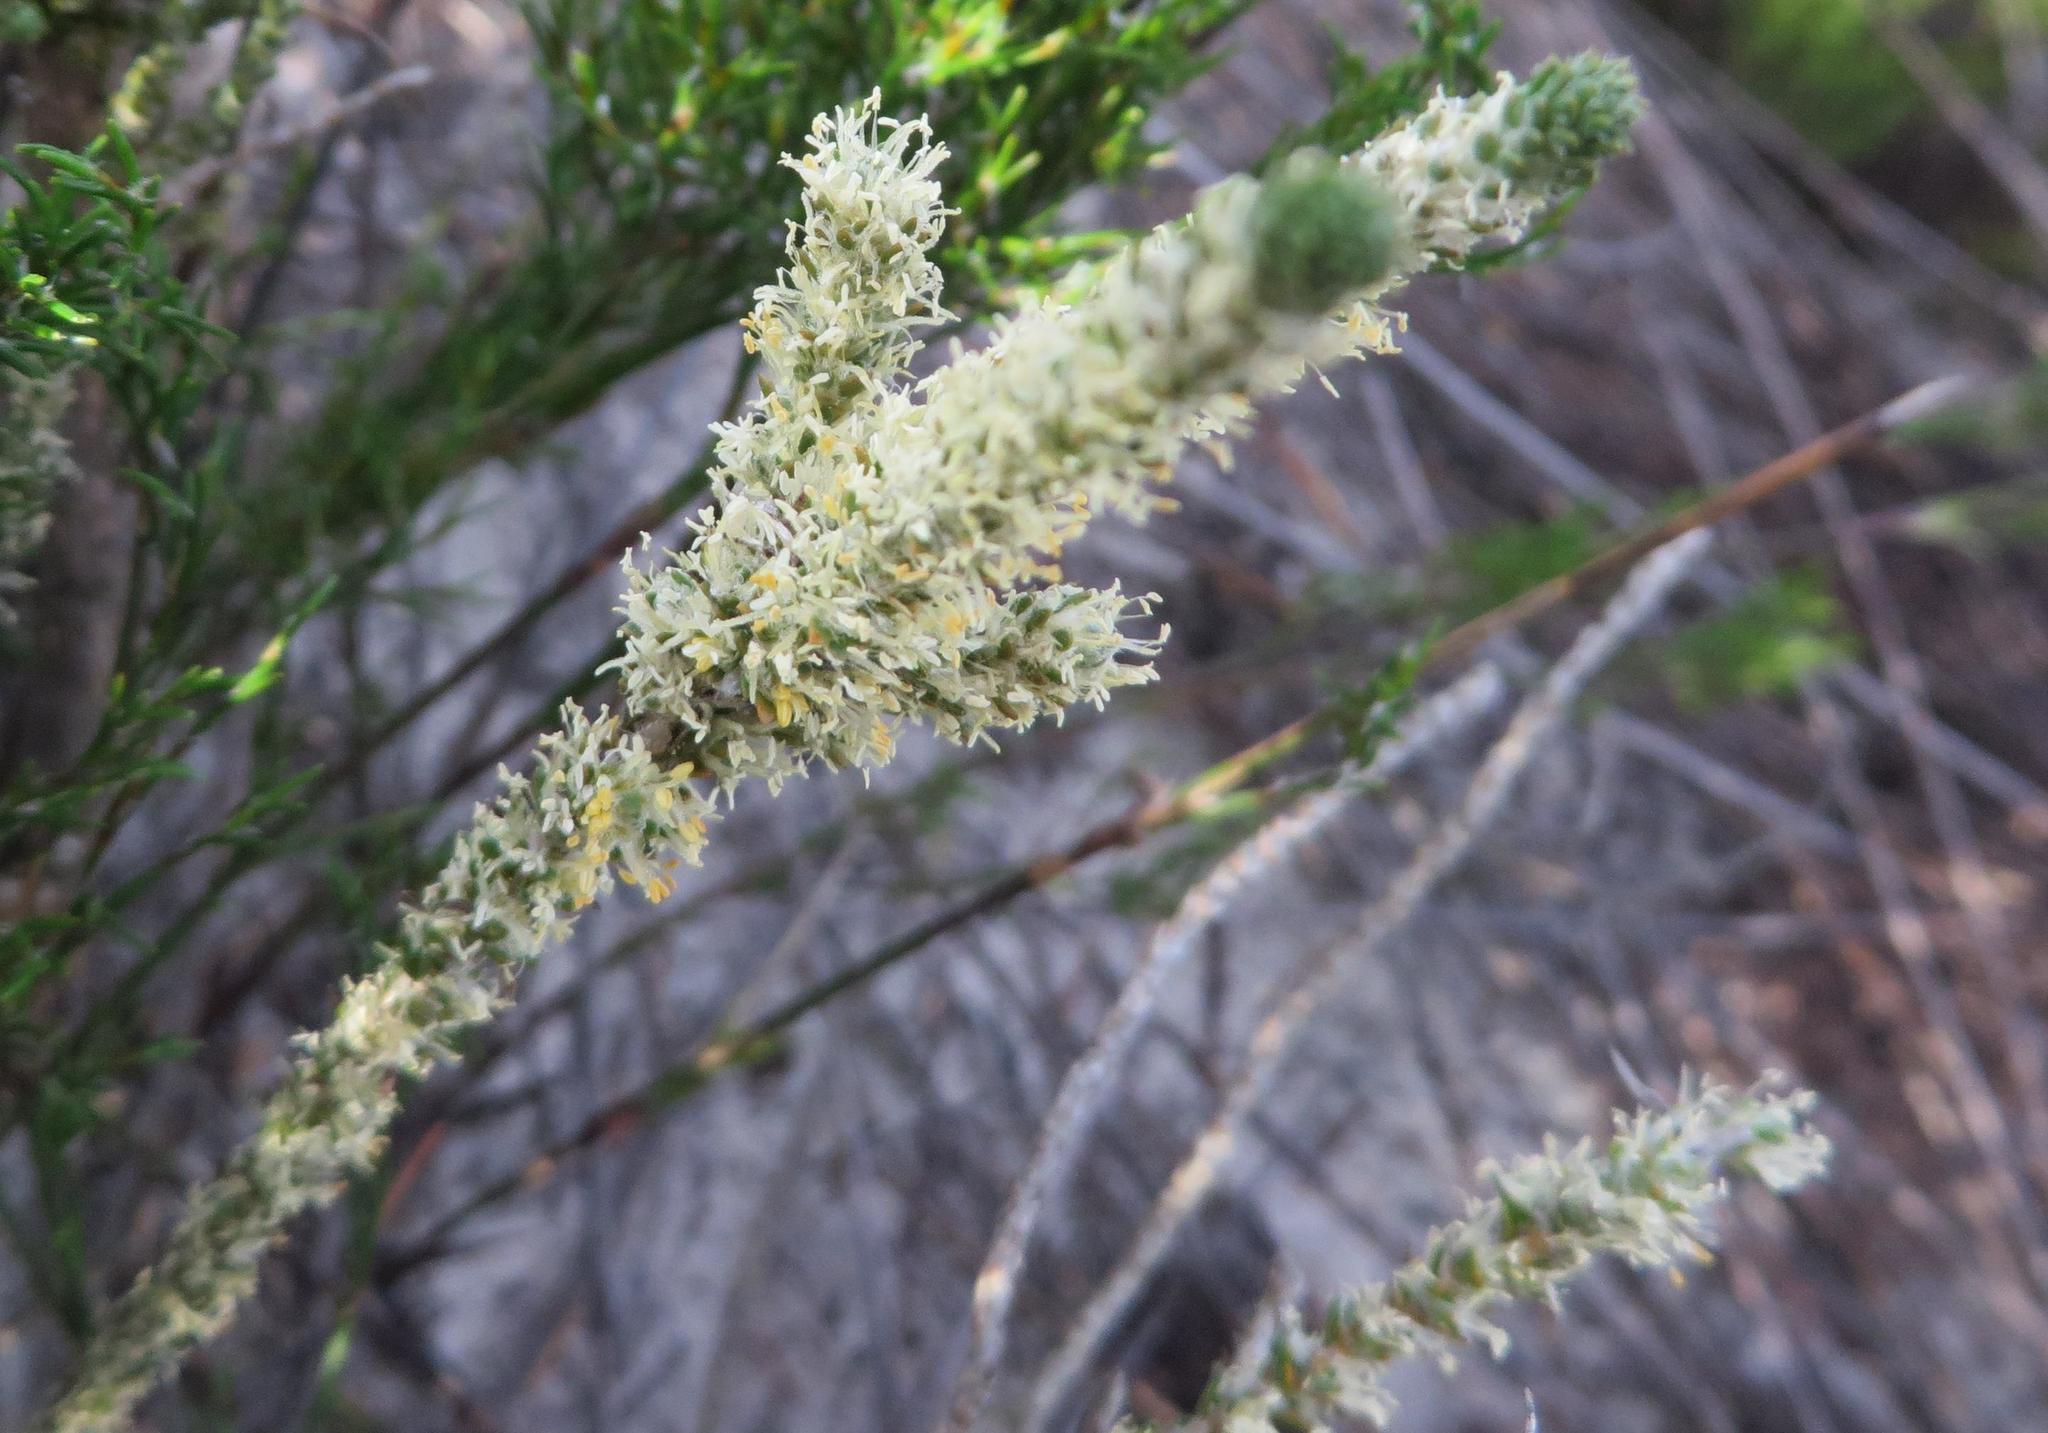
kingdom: Plantae
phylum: Tracheophyta
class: Magnoliopsida
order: Caryophyllales
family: Molluginaceae
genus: Polpoda
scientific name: Polpoda capensis
